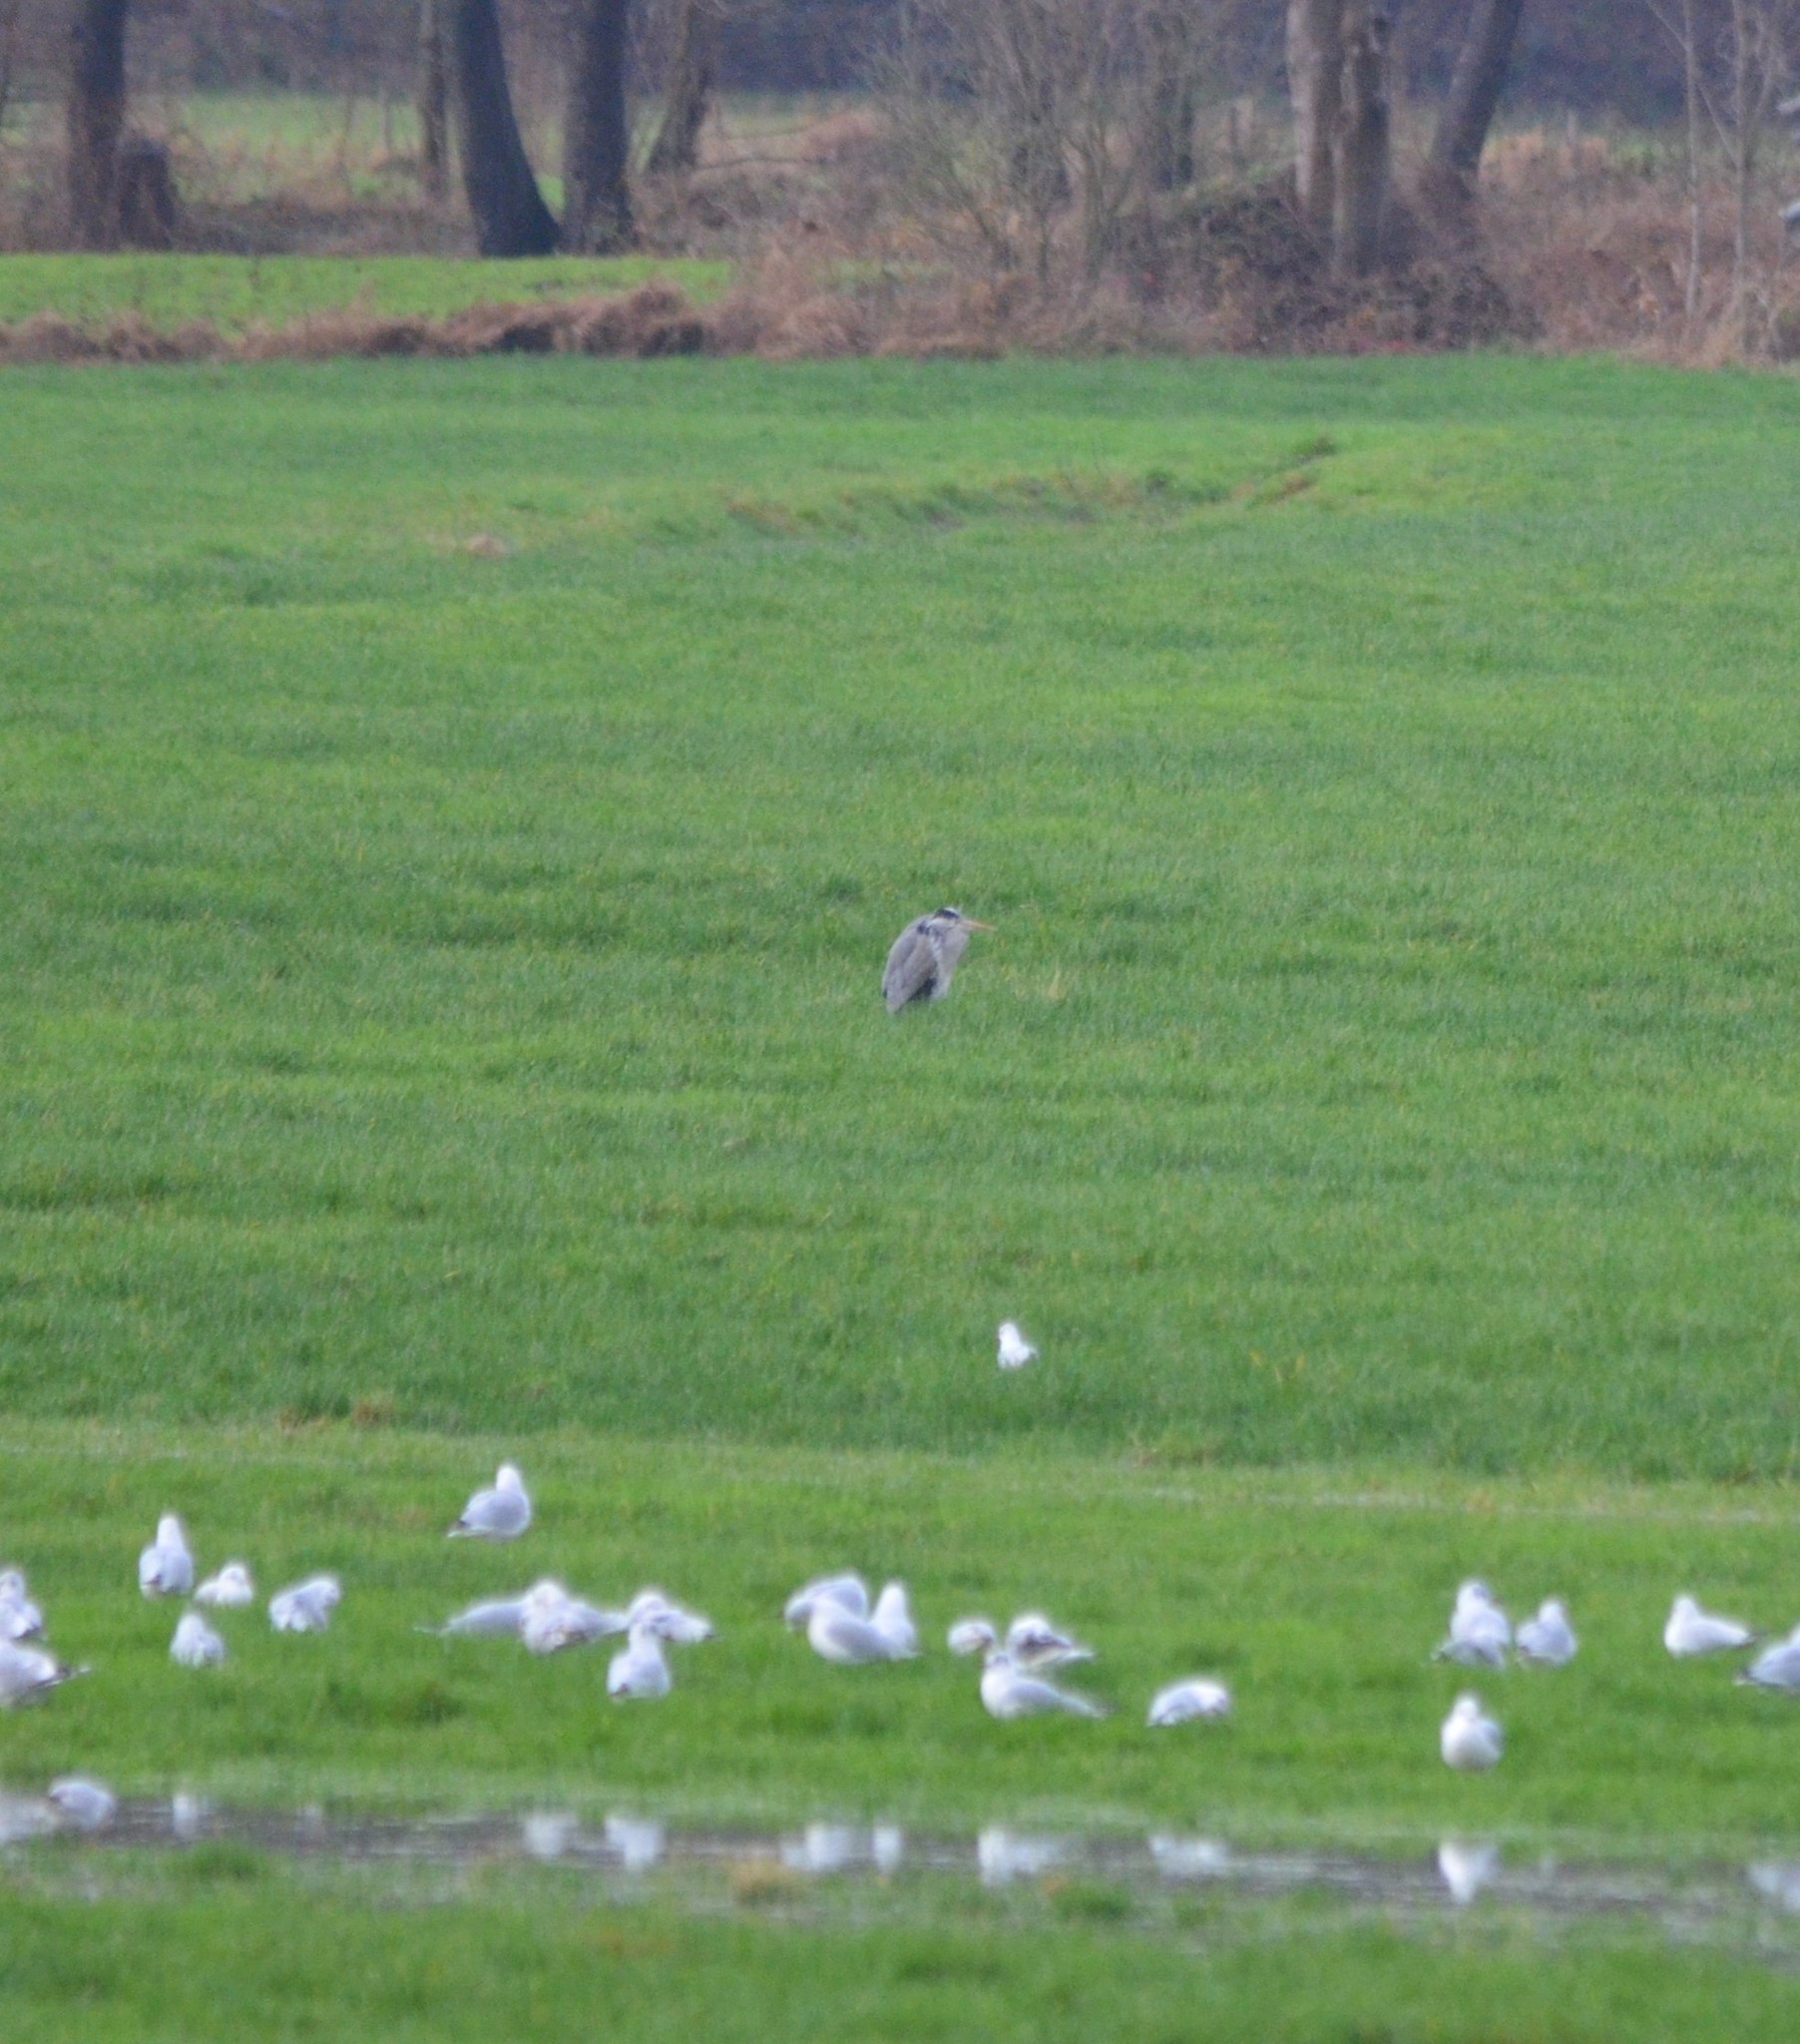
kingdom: Animalia
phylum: Chordata
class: Aves
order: Pelecaniformes
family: Ardeidae
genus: Ardea
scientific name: Ardea cinerea
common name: Grey heron
